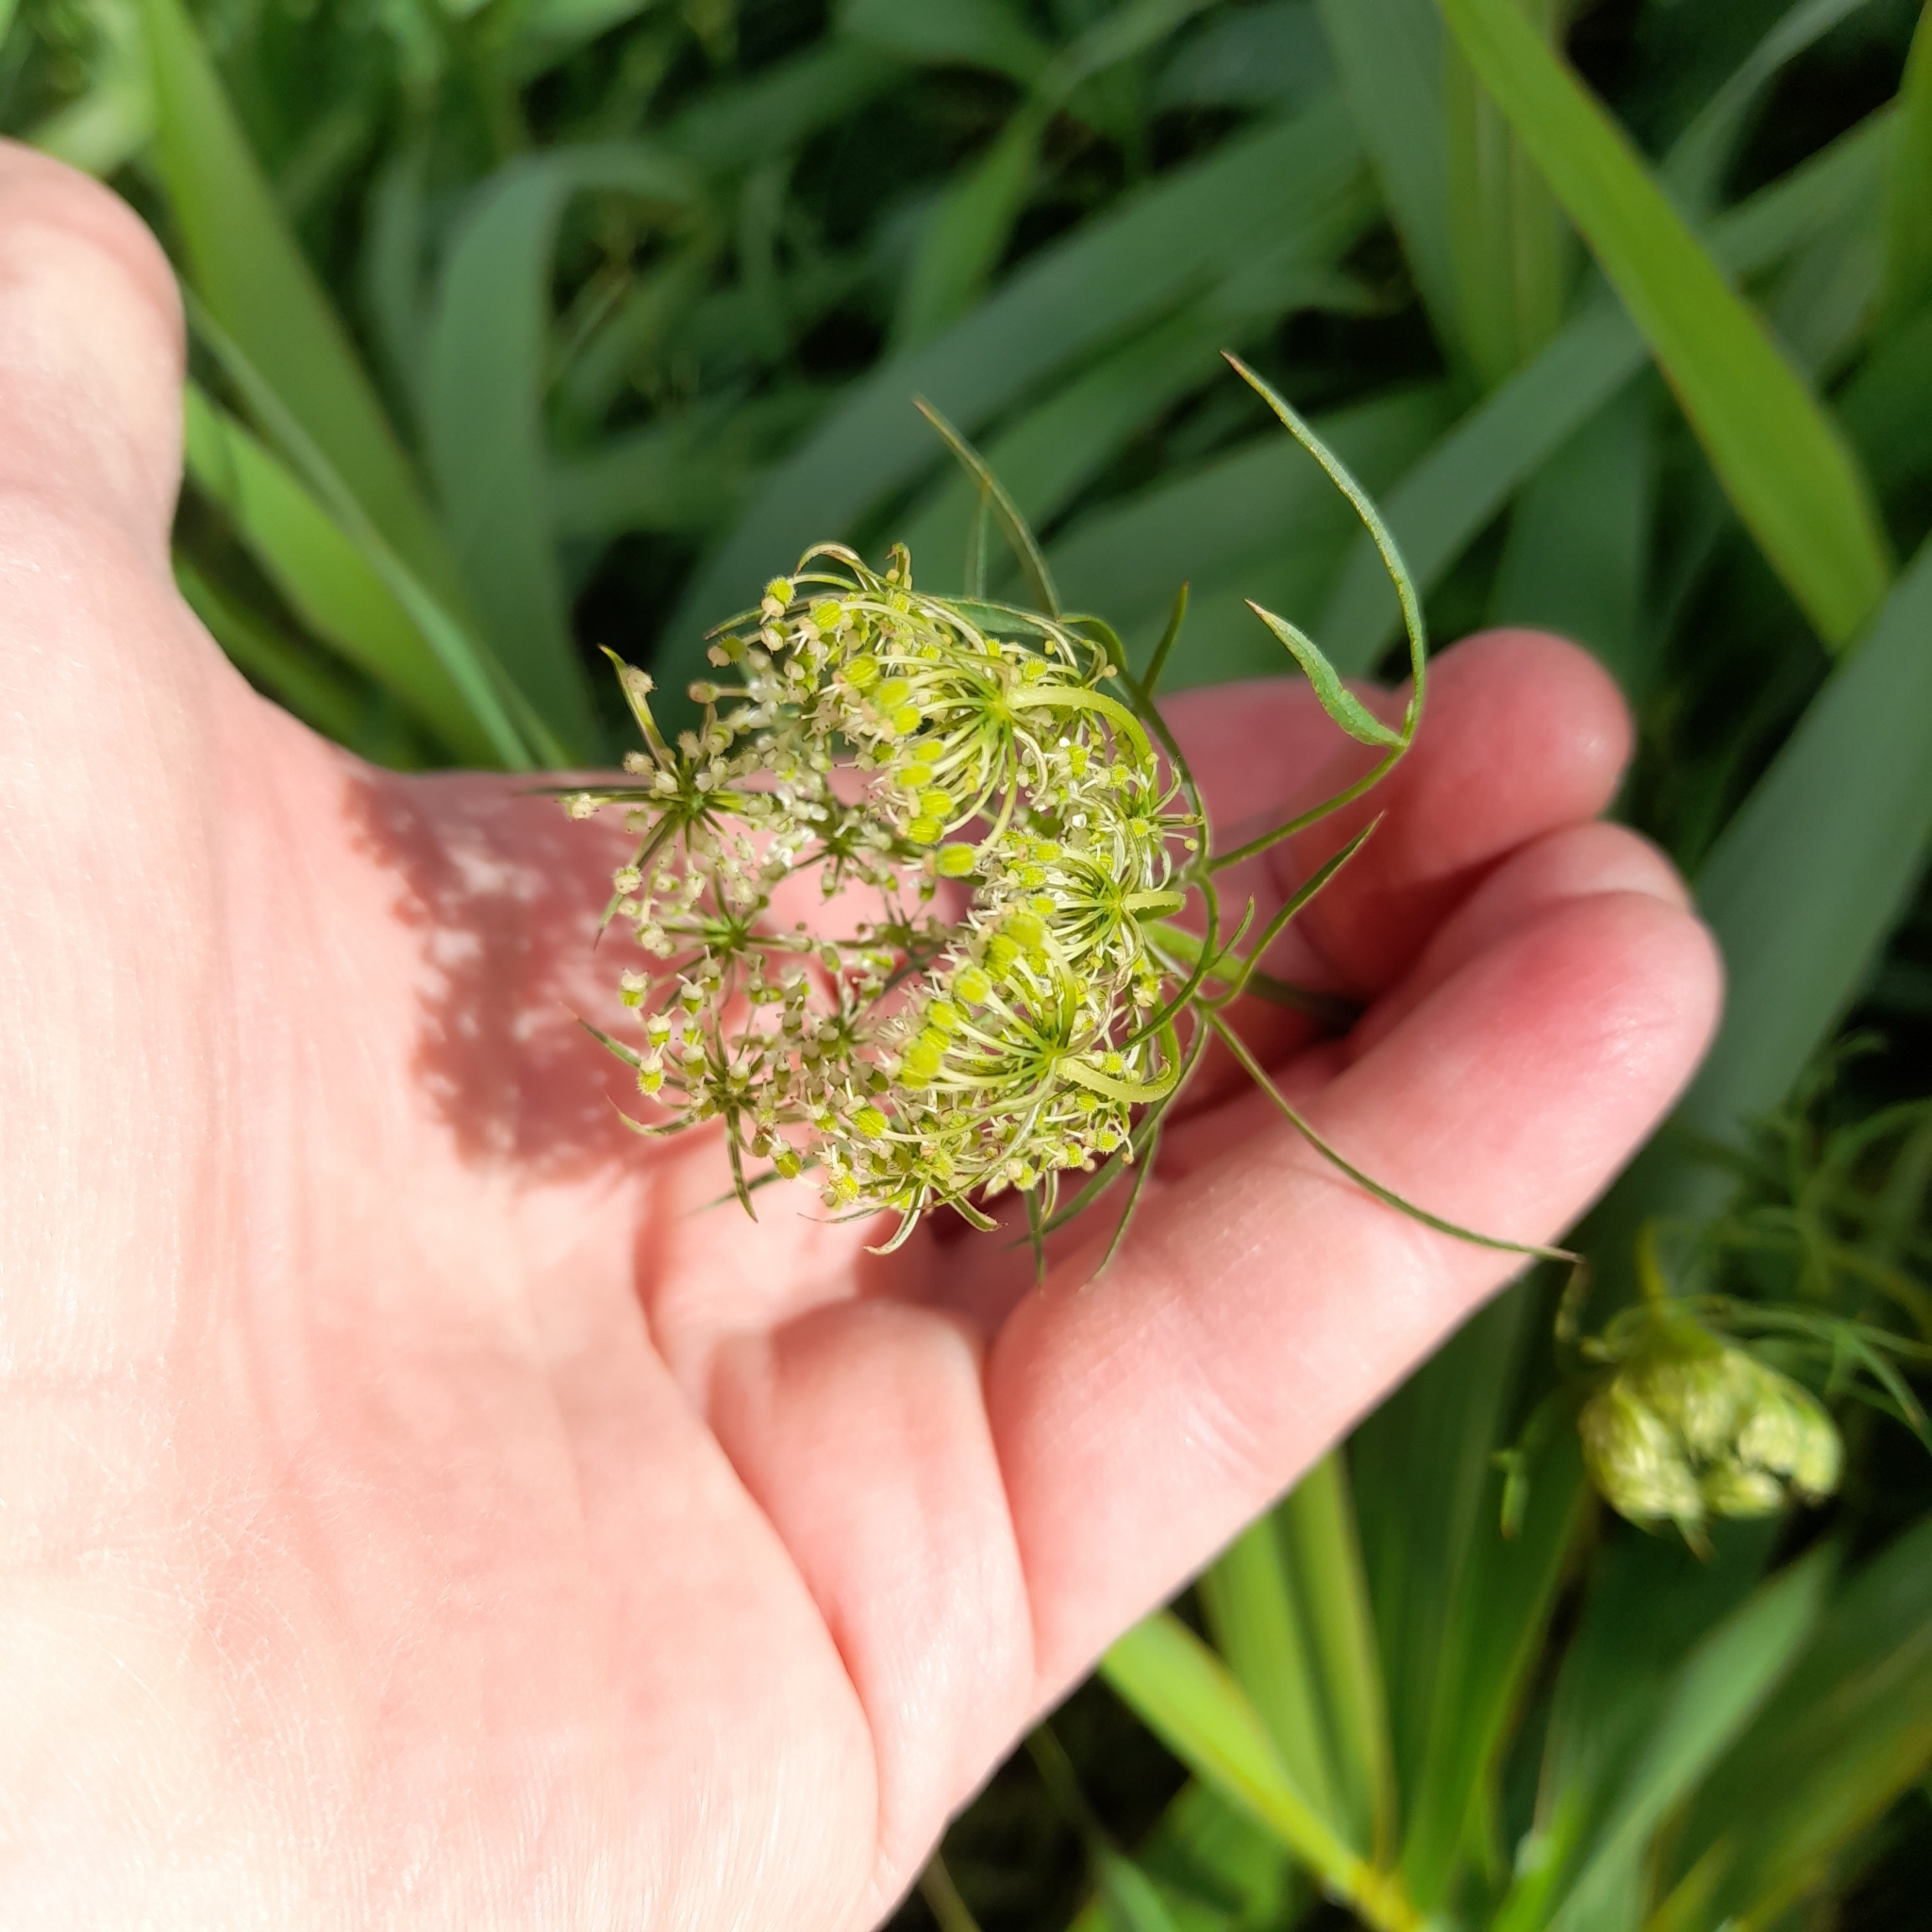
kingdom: Plantae
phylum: Tracheophyta
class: Magnoliopsida
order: Apiales
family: Apiaceae
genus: Daucus
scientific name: Daucus carota
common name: Wild carrot
